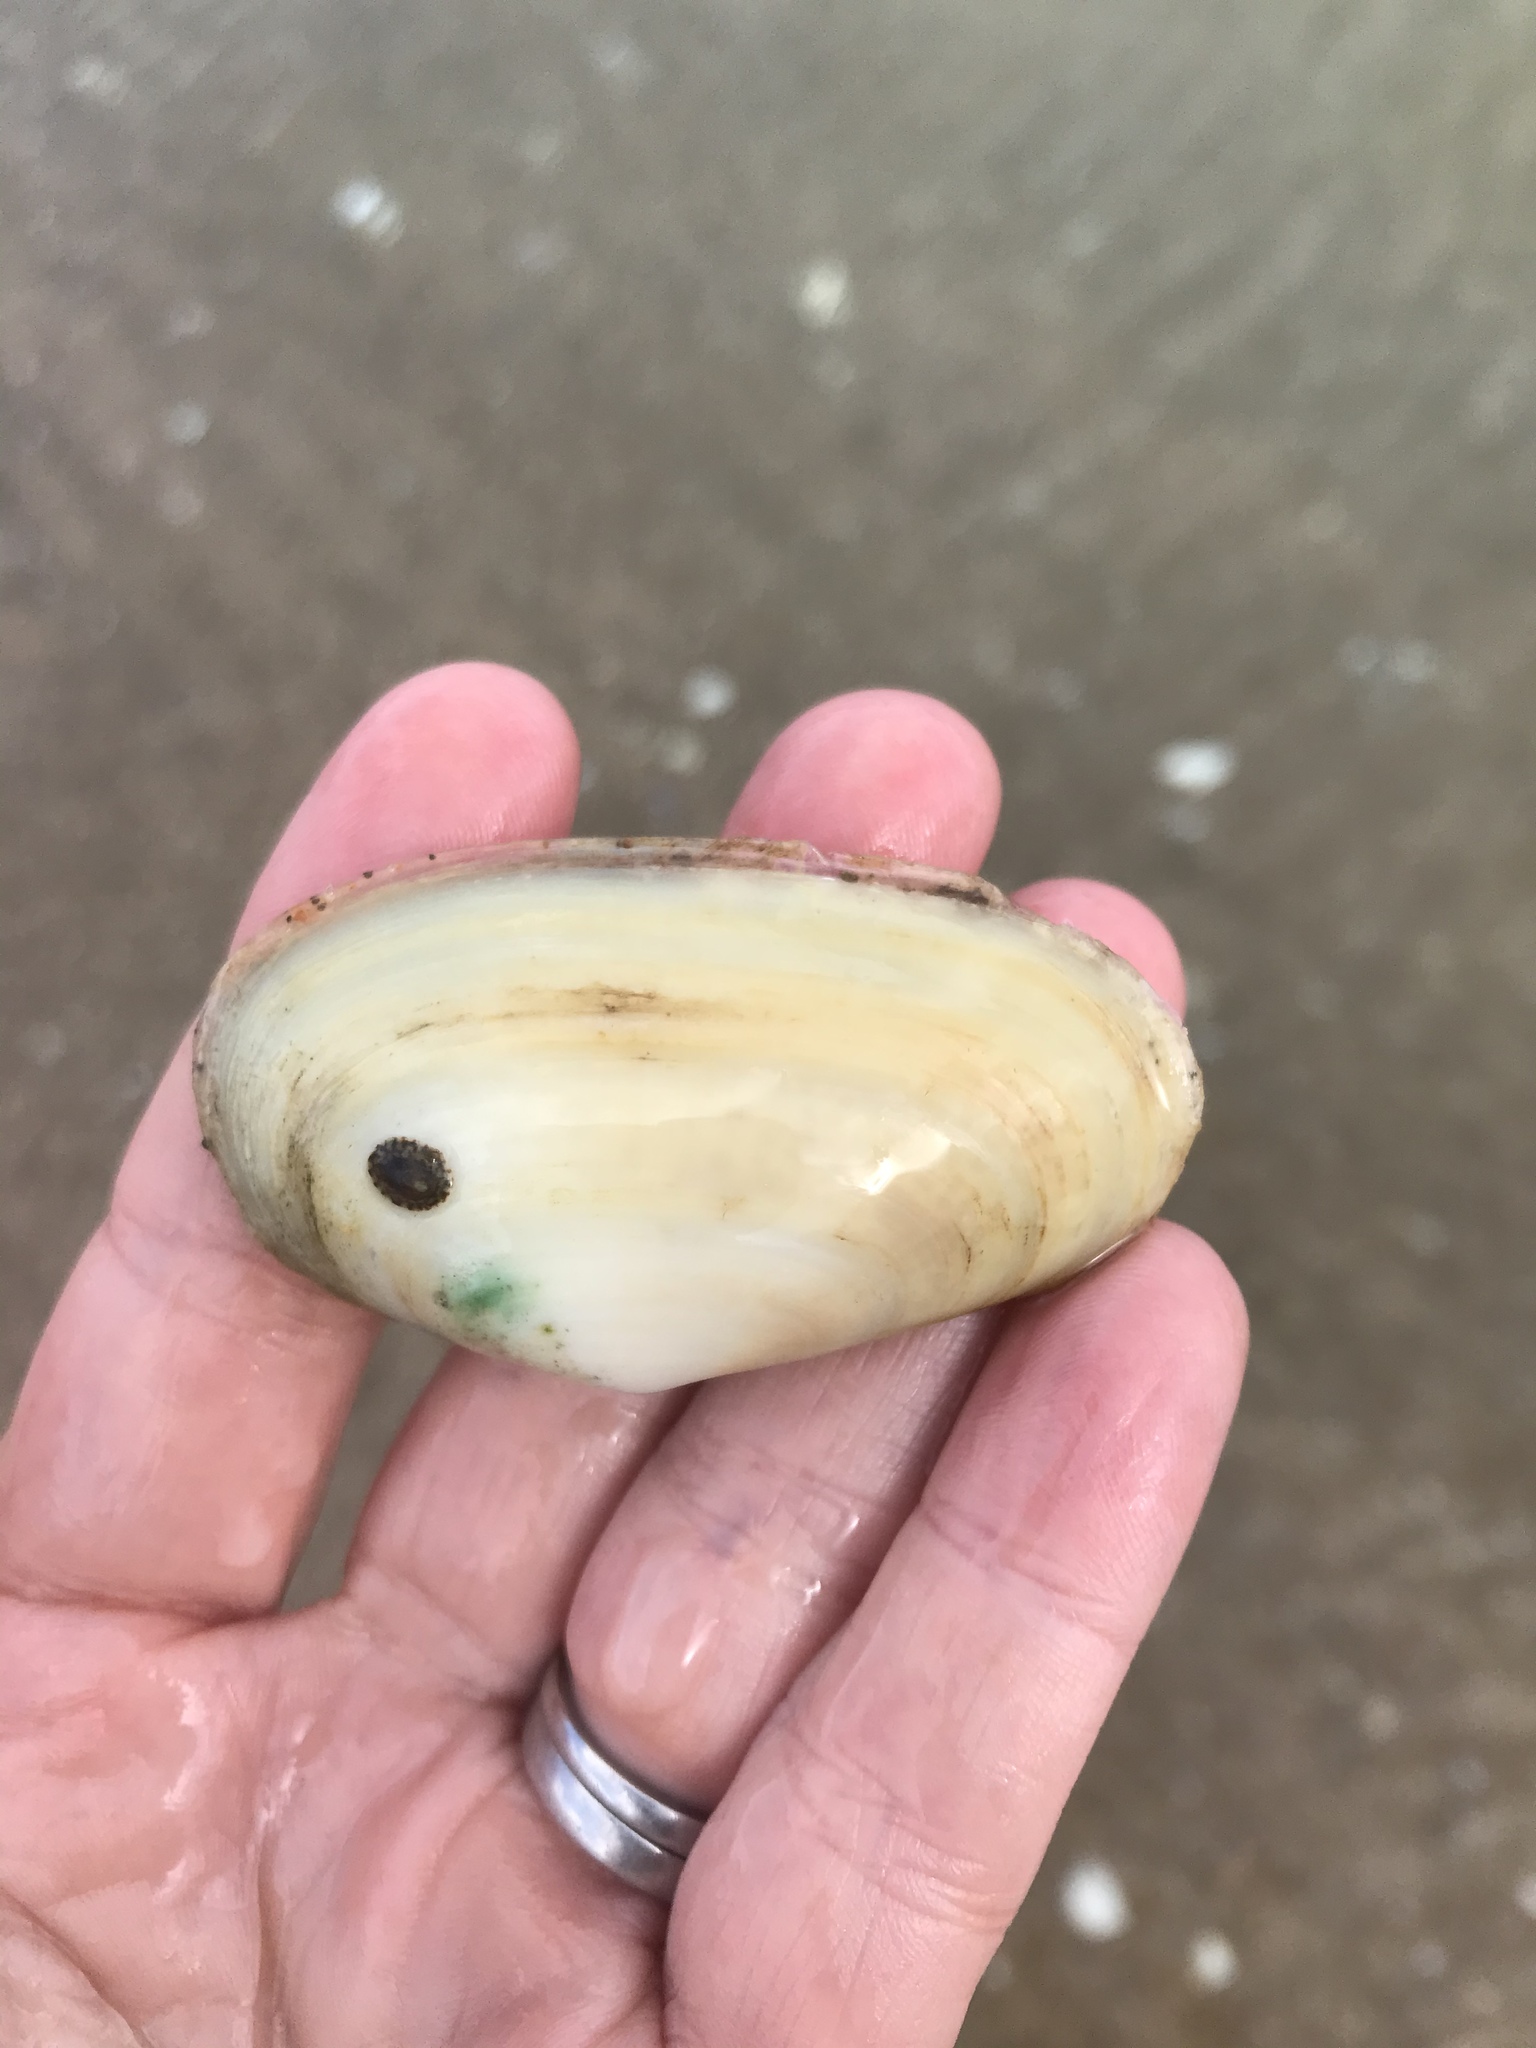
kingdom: Animalia
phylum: Mollusca
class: Bivalvia
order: Venerida
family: Mesodesmatidae
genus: Paphies
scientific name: Paphies australis
